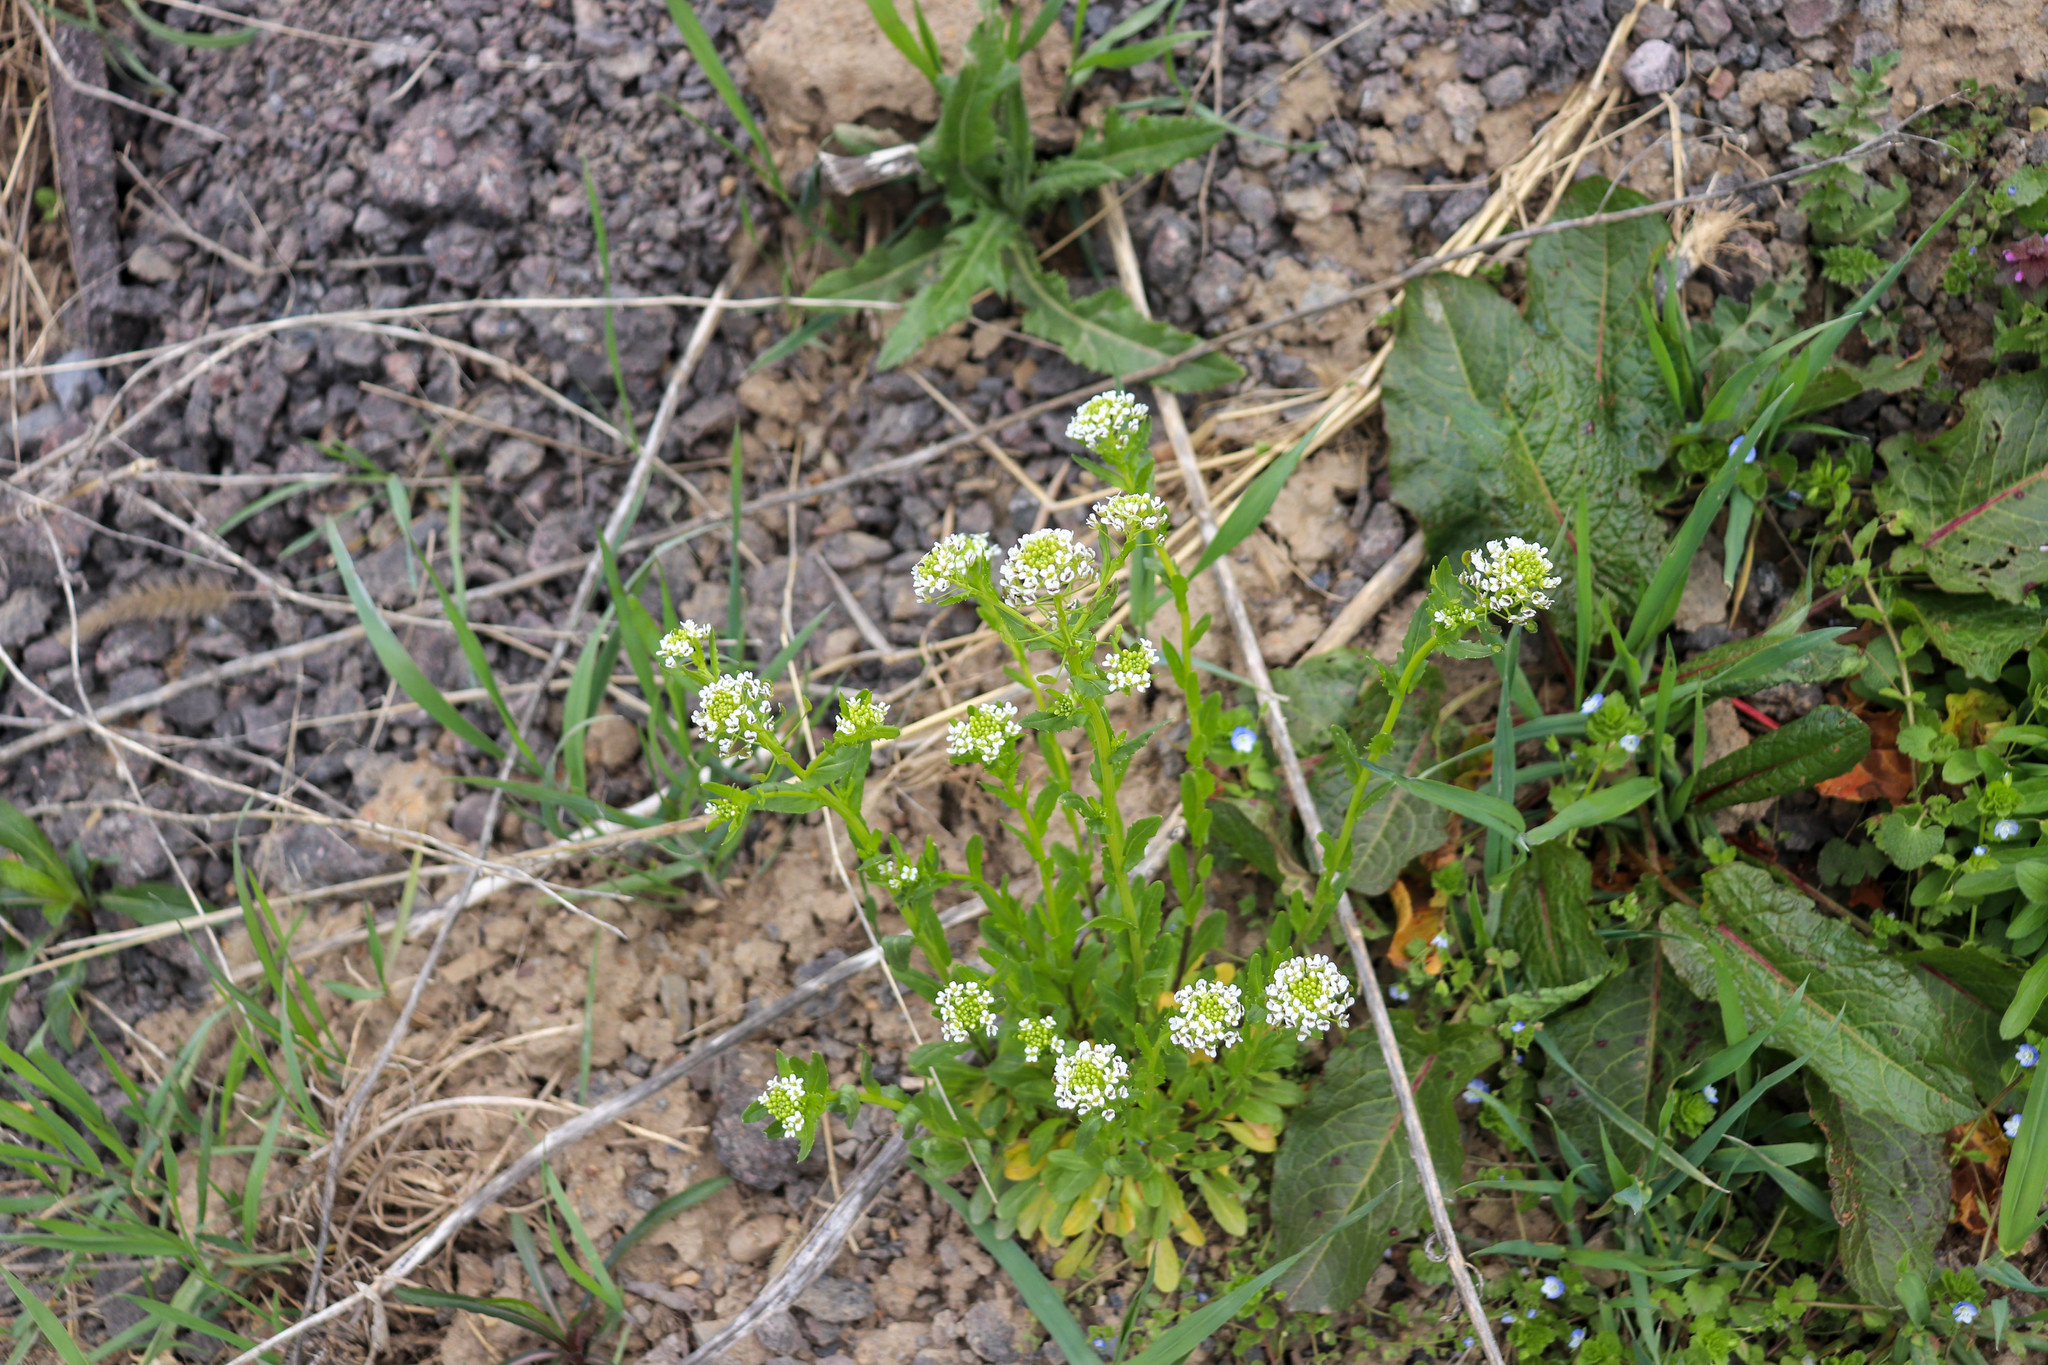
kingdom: Plantae
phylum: Tracheophyta
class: Magnoliopsida
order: Brassicales
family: Brassicaceae
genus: Thlaspi
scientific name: Thlaspi arvense
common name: Field pennycress
